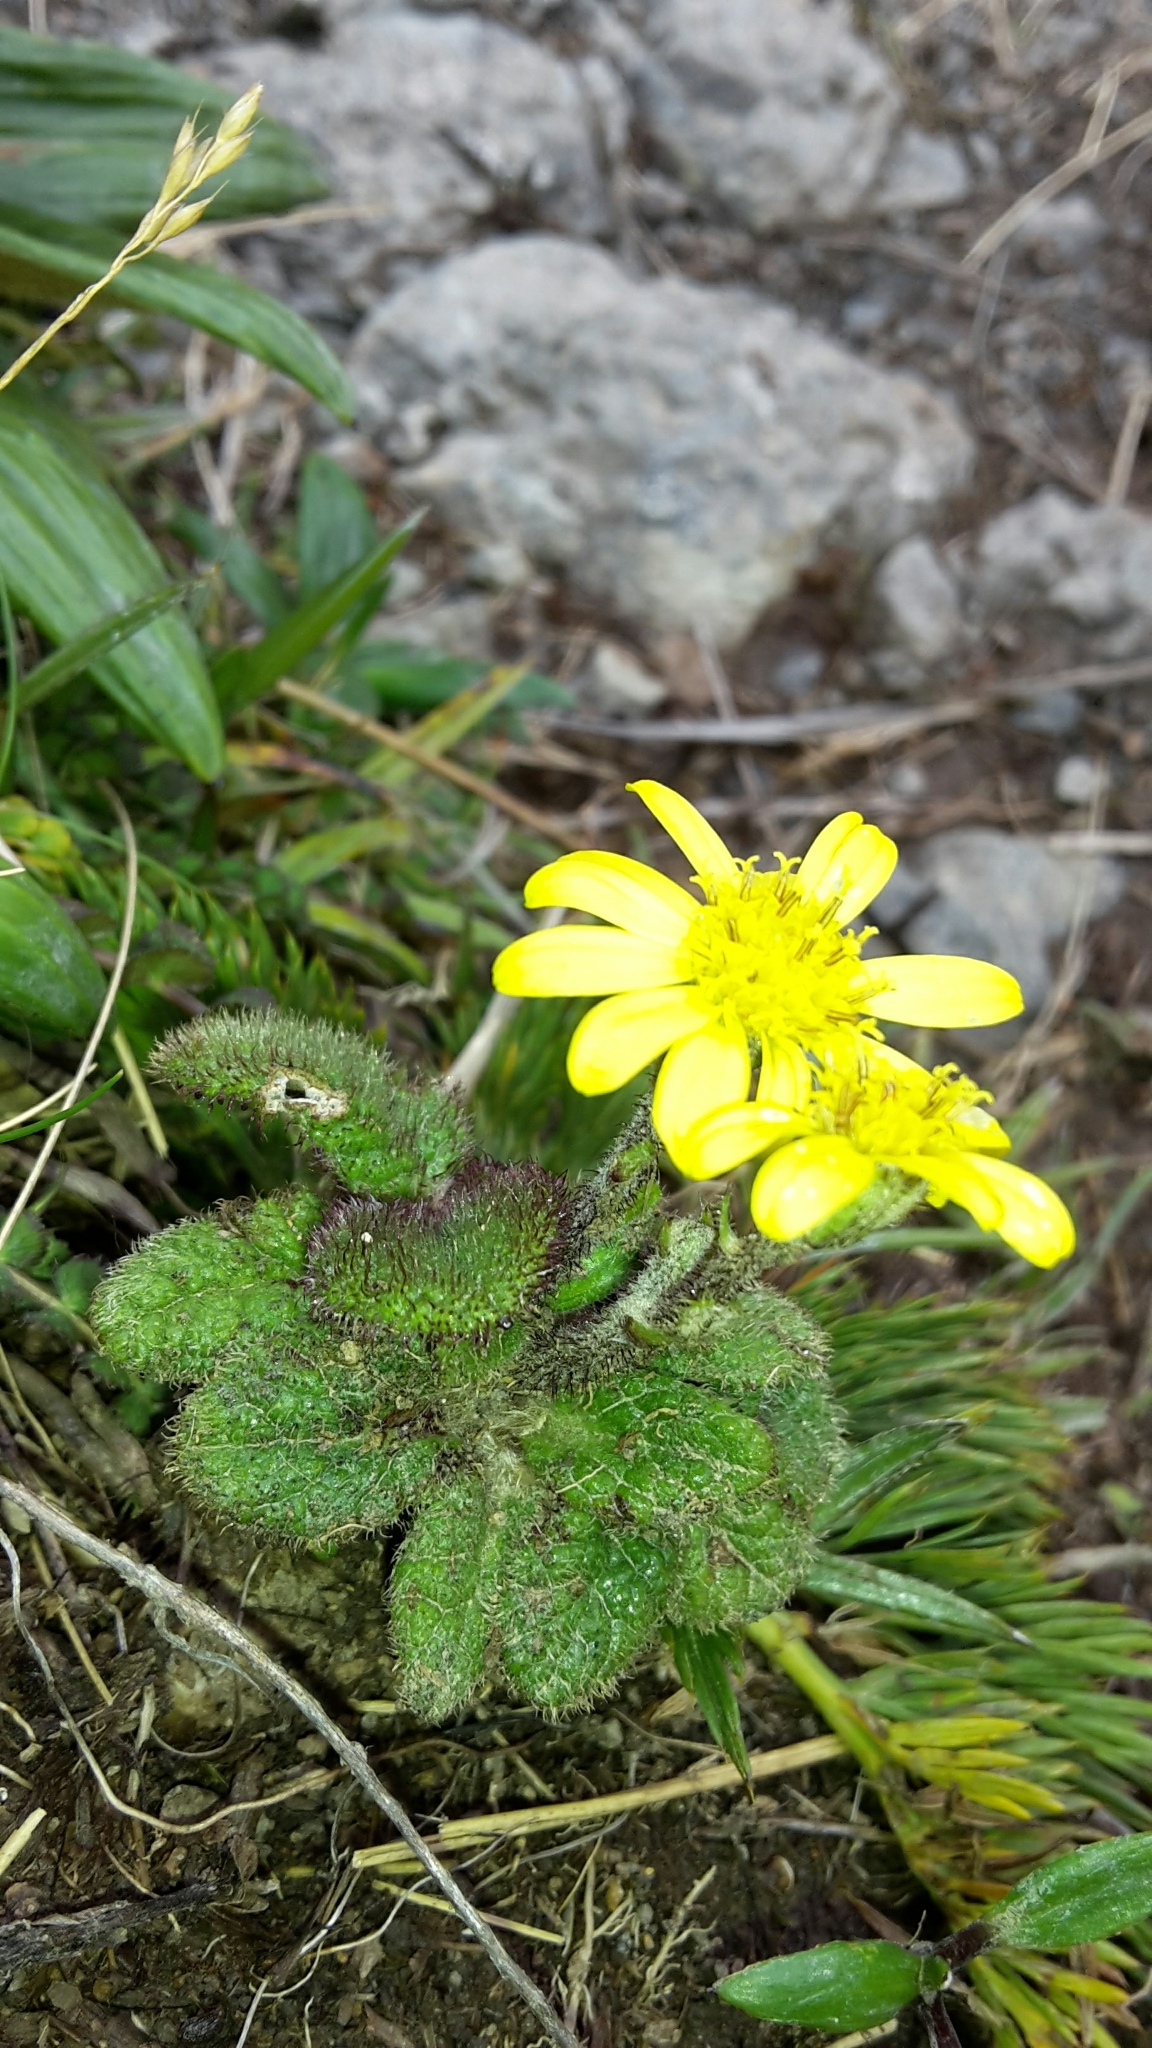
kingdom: Plantae
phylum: Tracheophyta
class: Magnoliopsida
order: Asterales
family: Asteraceae
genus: Brachyglottis
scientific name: Brachyglottis lagopus
